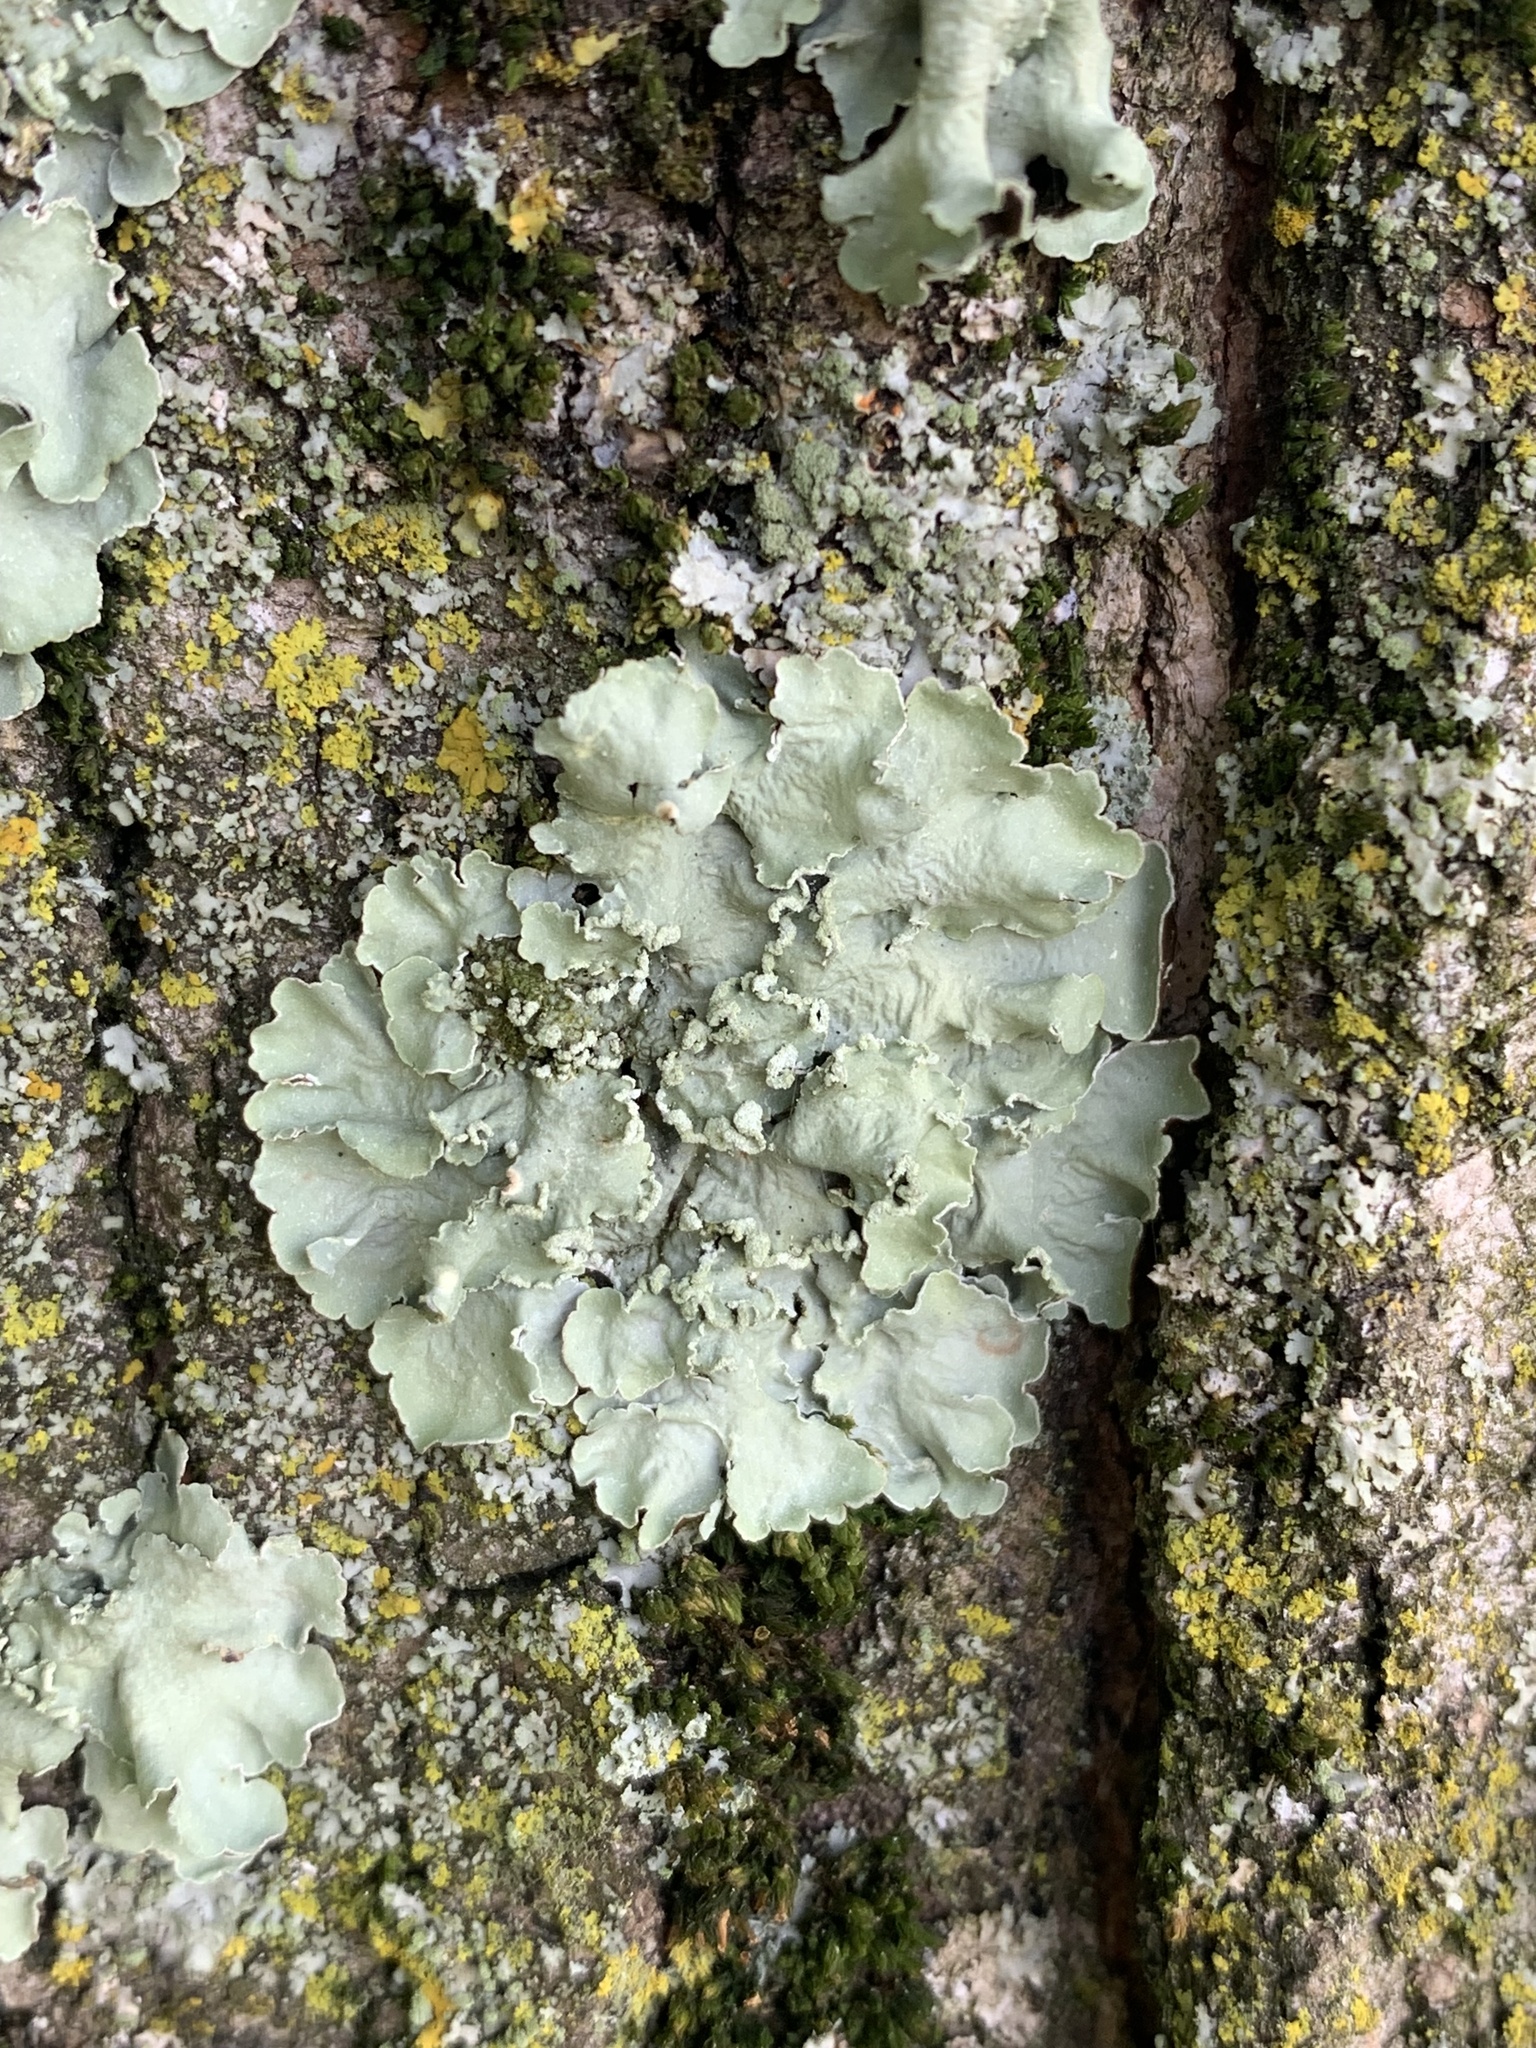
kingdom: Fungi
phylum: Ascomycota
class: Lecanoromycetes
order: Lecanorales
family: Parmeliaceae
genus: Flavopunctelia
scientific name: Flavopunctelia soredica
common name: Powder-edged speckled greenshield
